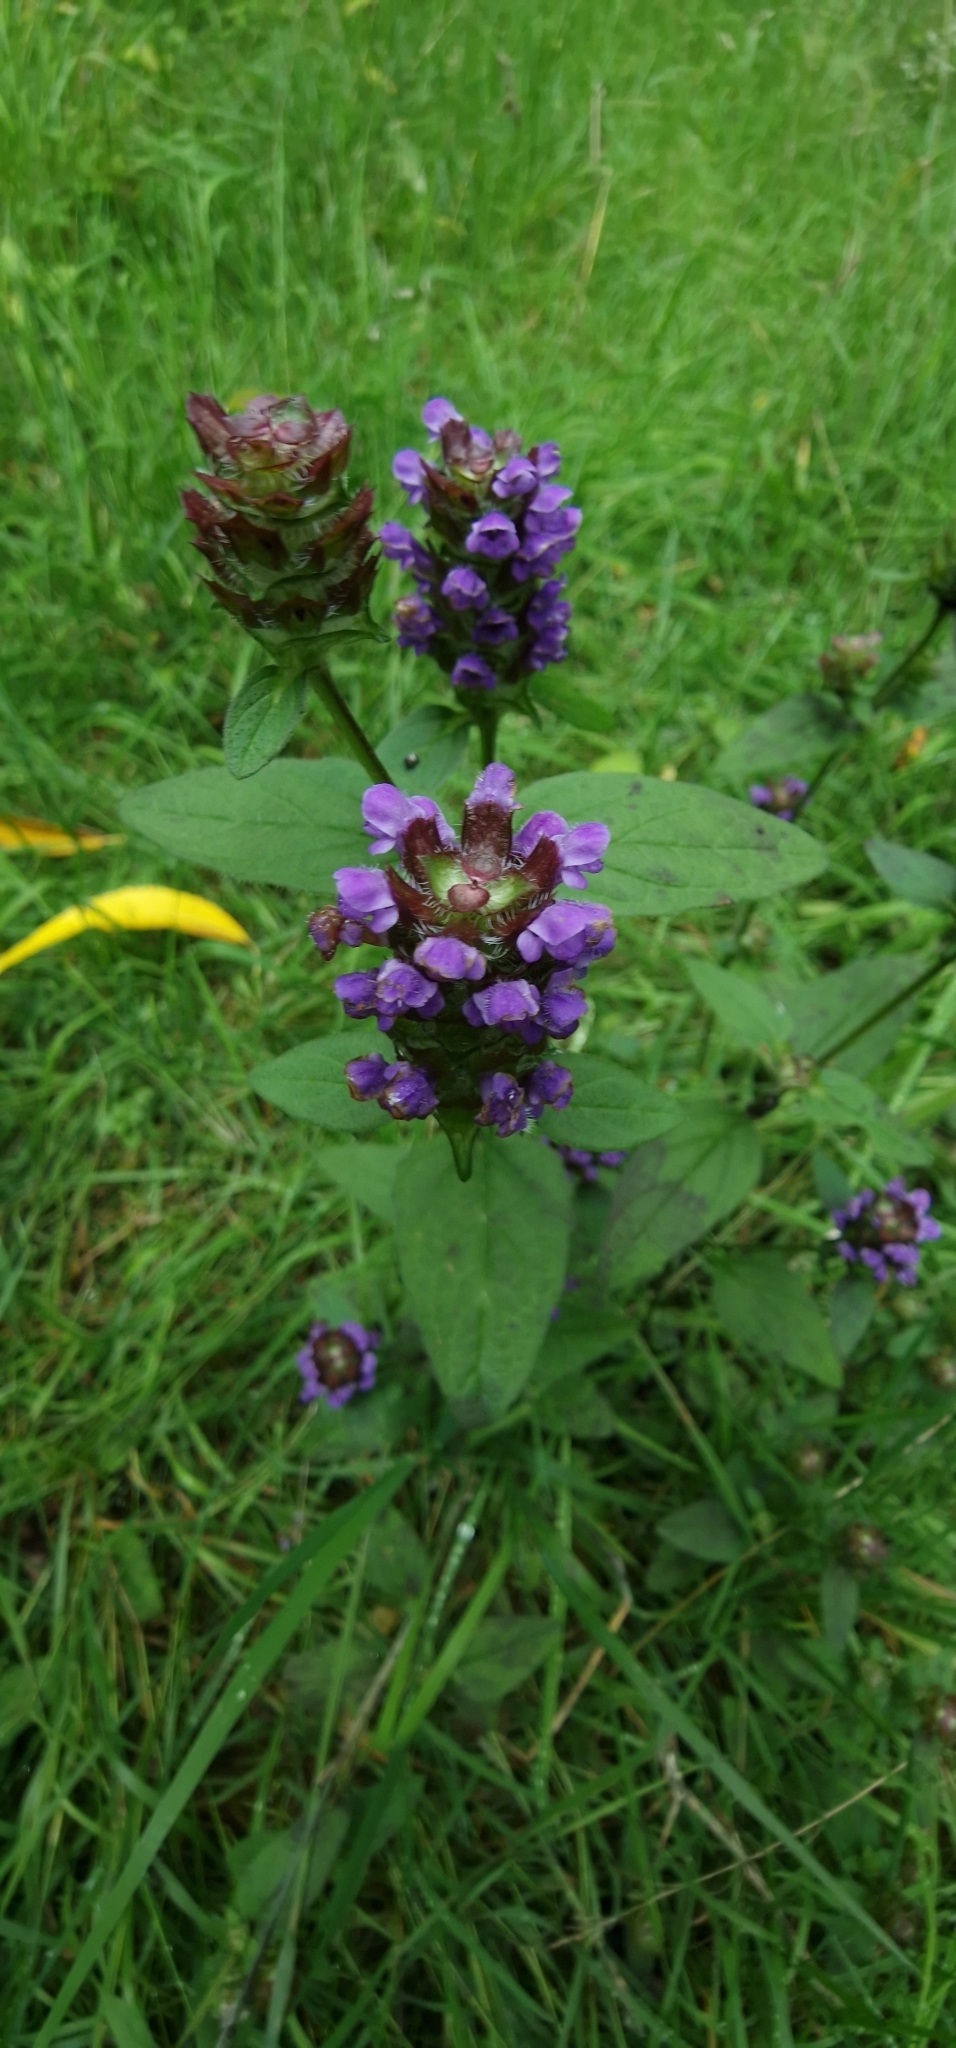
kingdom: Plantae
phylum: Tracheophyta
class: Magnoliopsida
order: Lamiales
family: Lamiaceae
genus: Prunella
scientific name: Prunella vulgaris
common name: Heal-all
